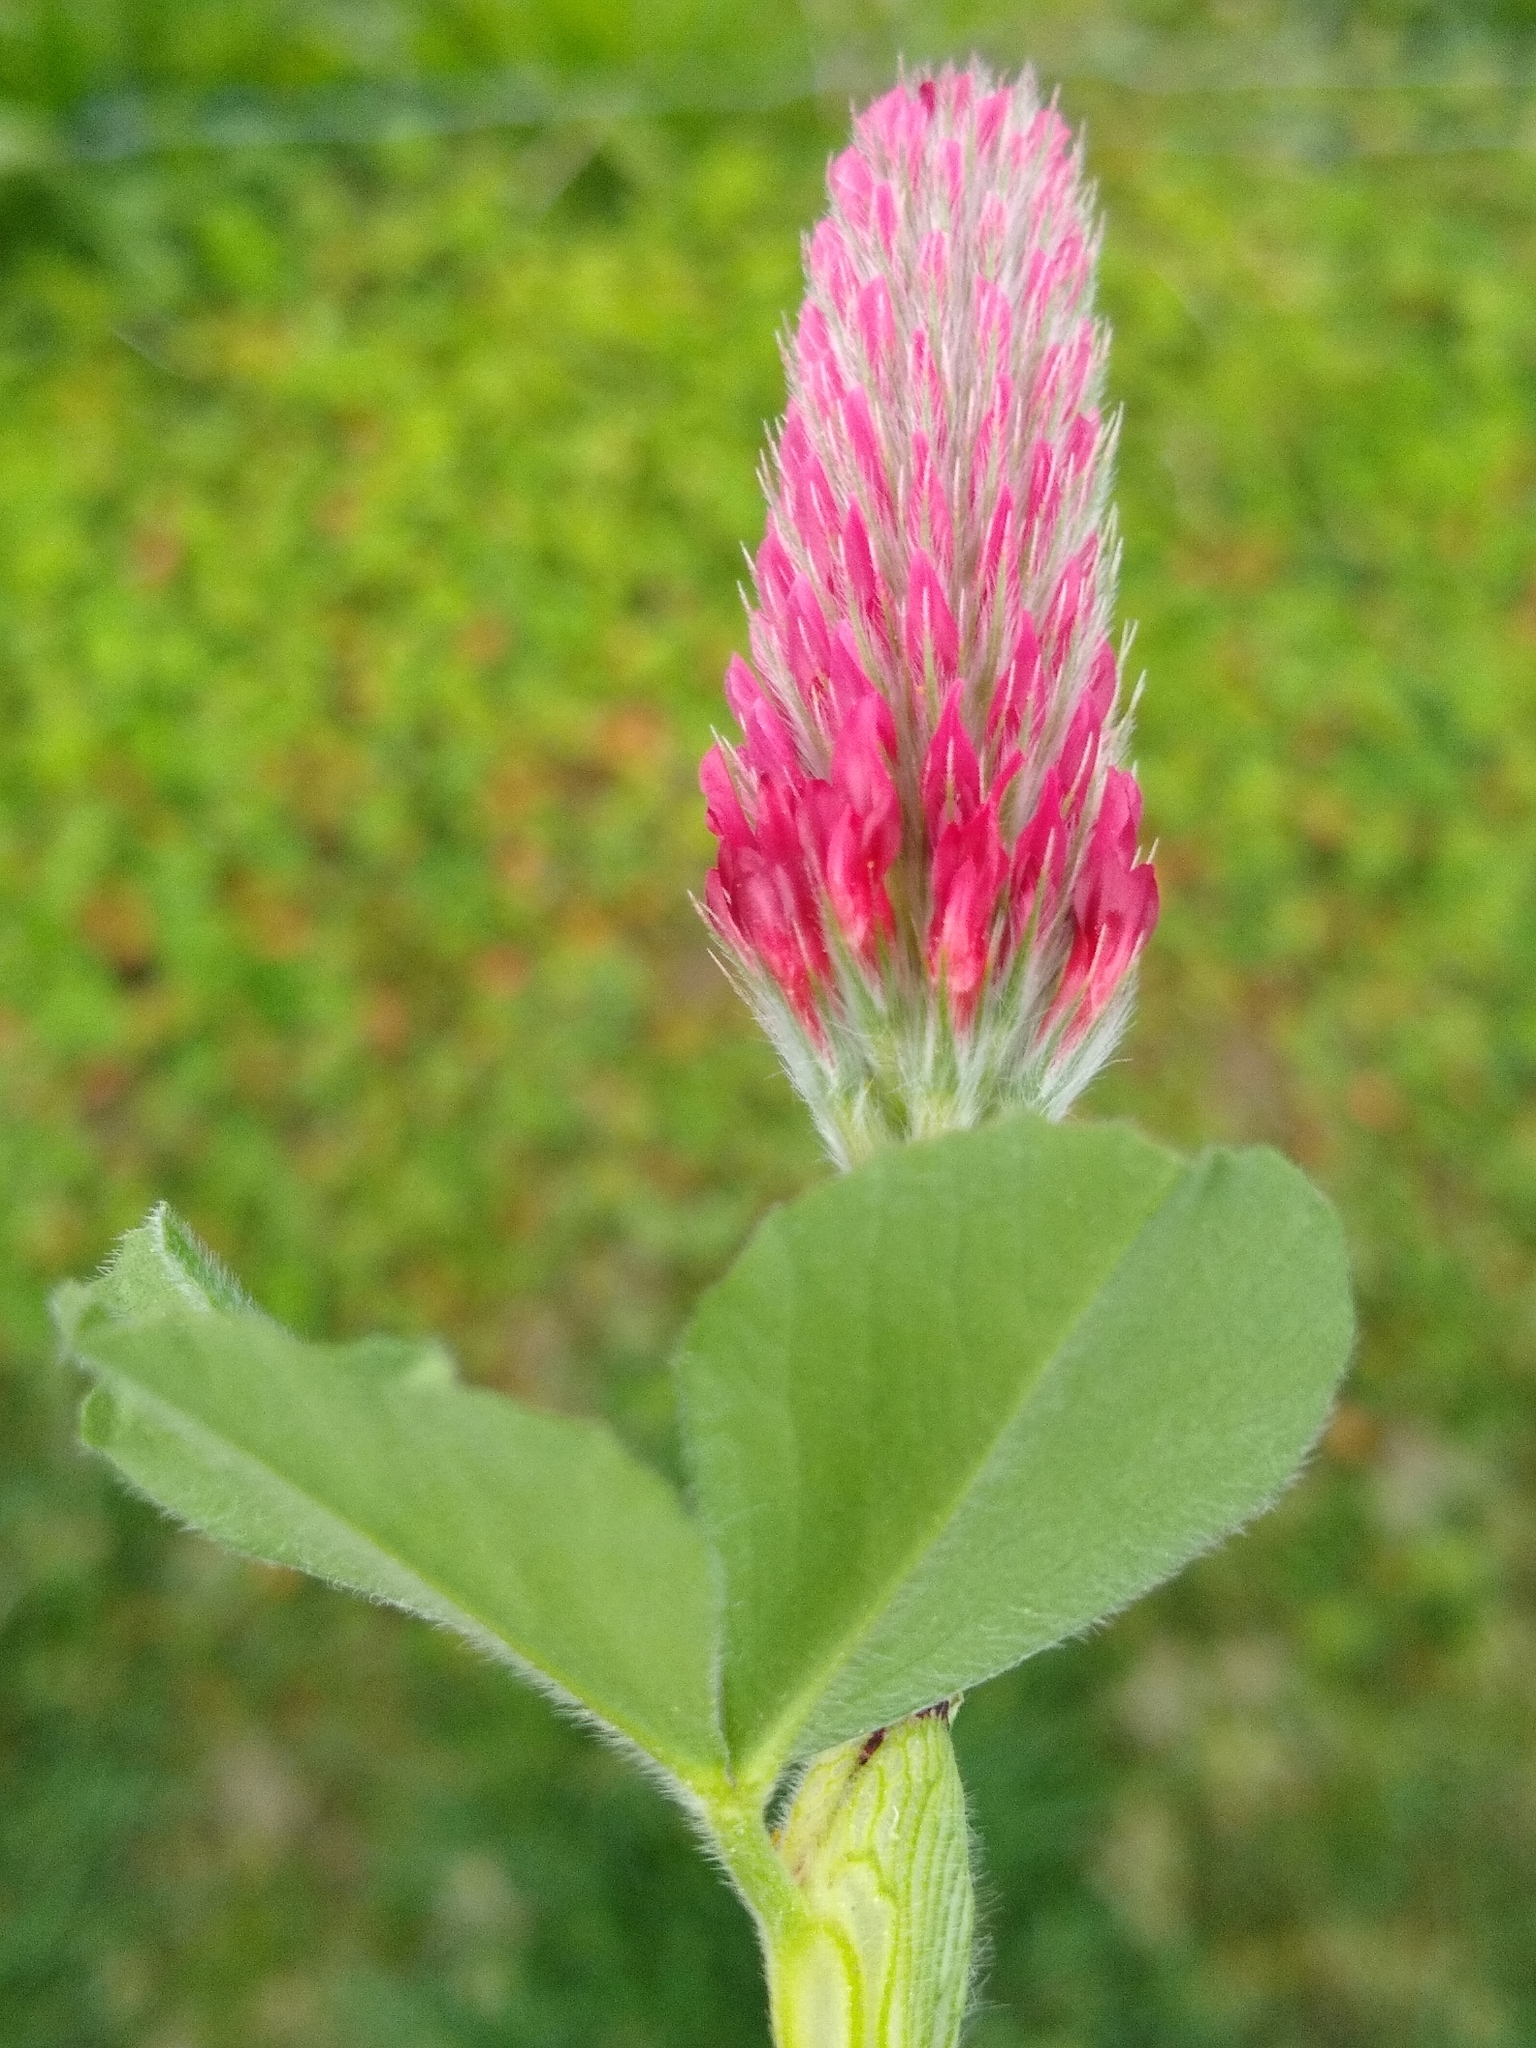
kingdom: Plantae
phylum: Tracheophyta
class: Magnoliopsida
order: Fabales
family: Fabaceae
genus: Trifolium
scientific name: Trifolium incarnatum
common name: Crimson clover
